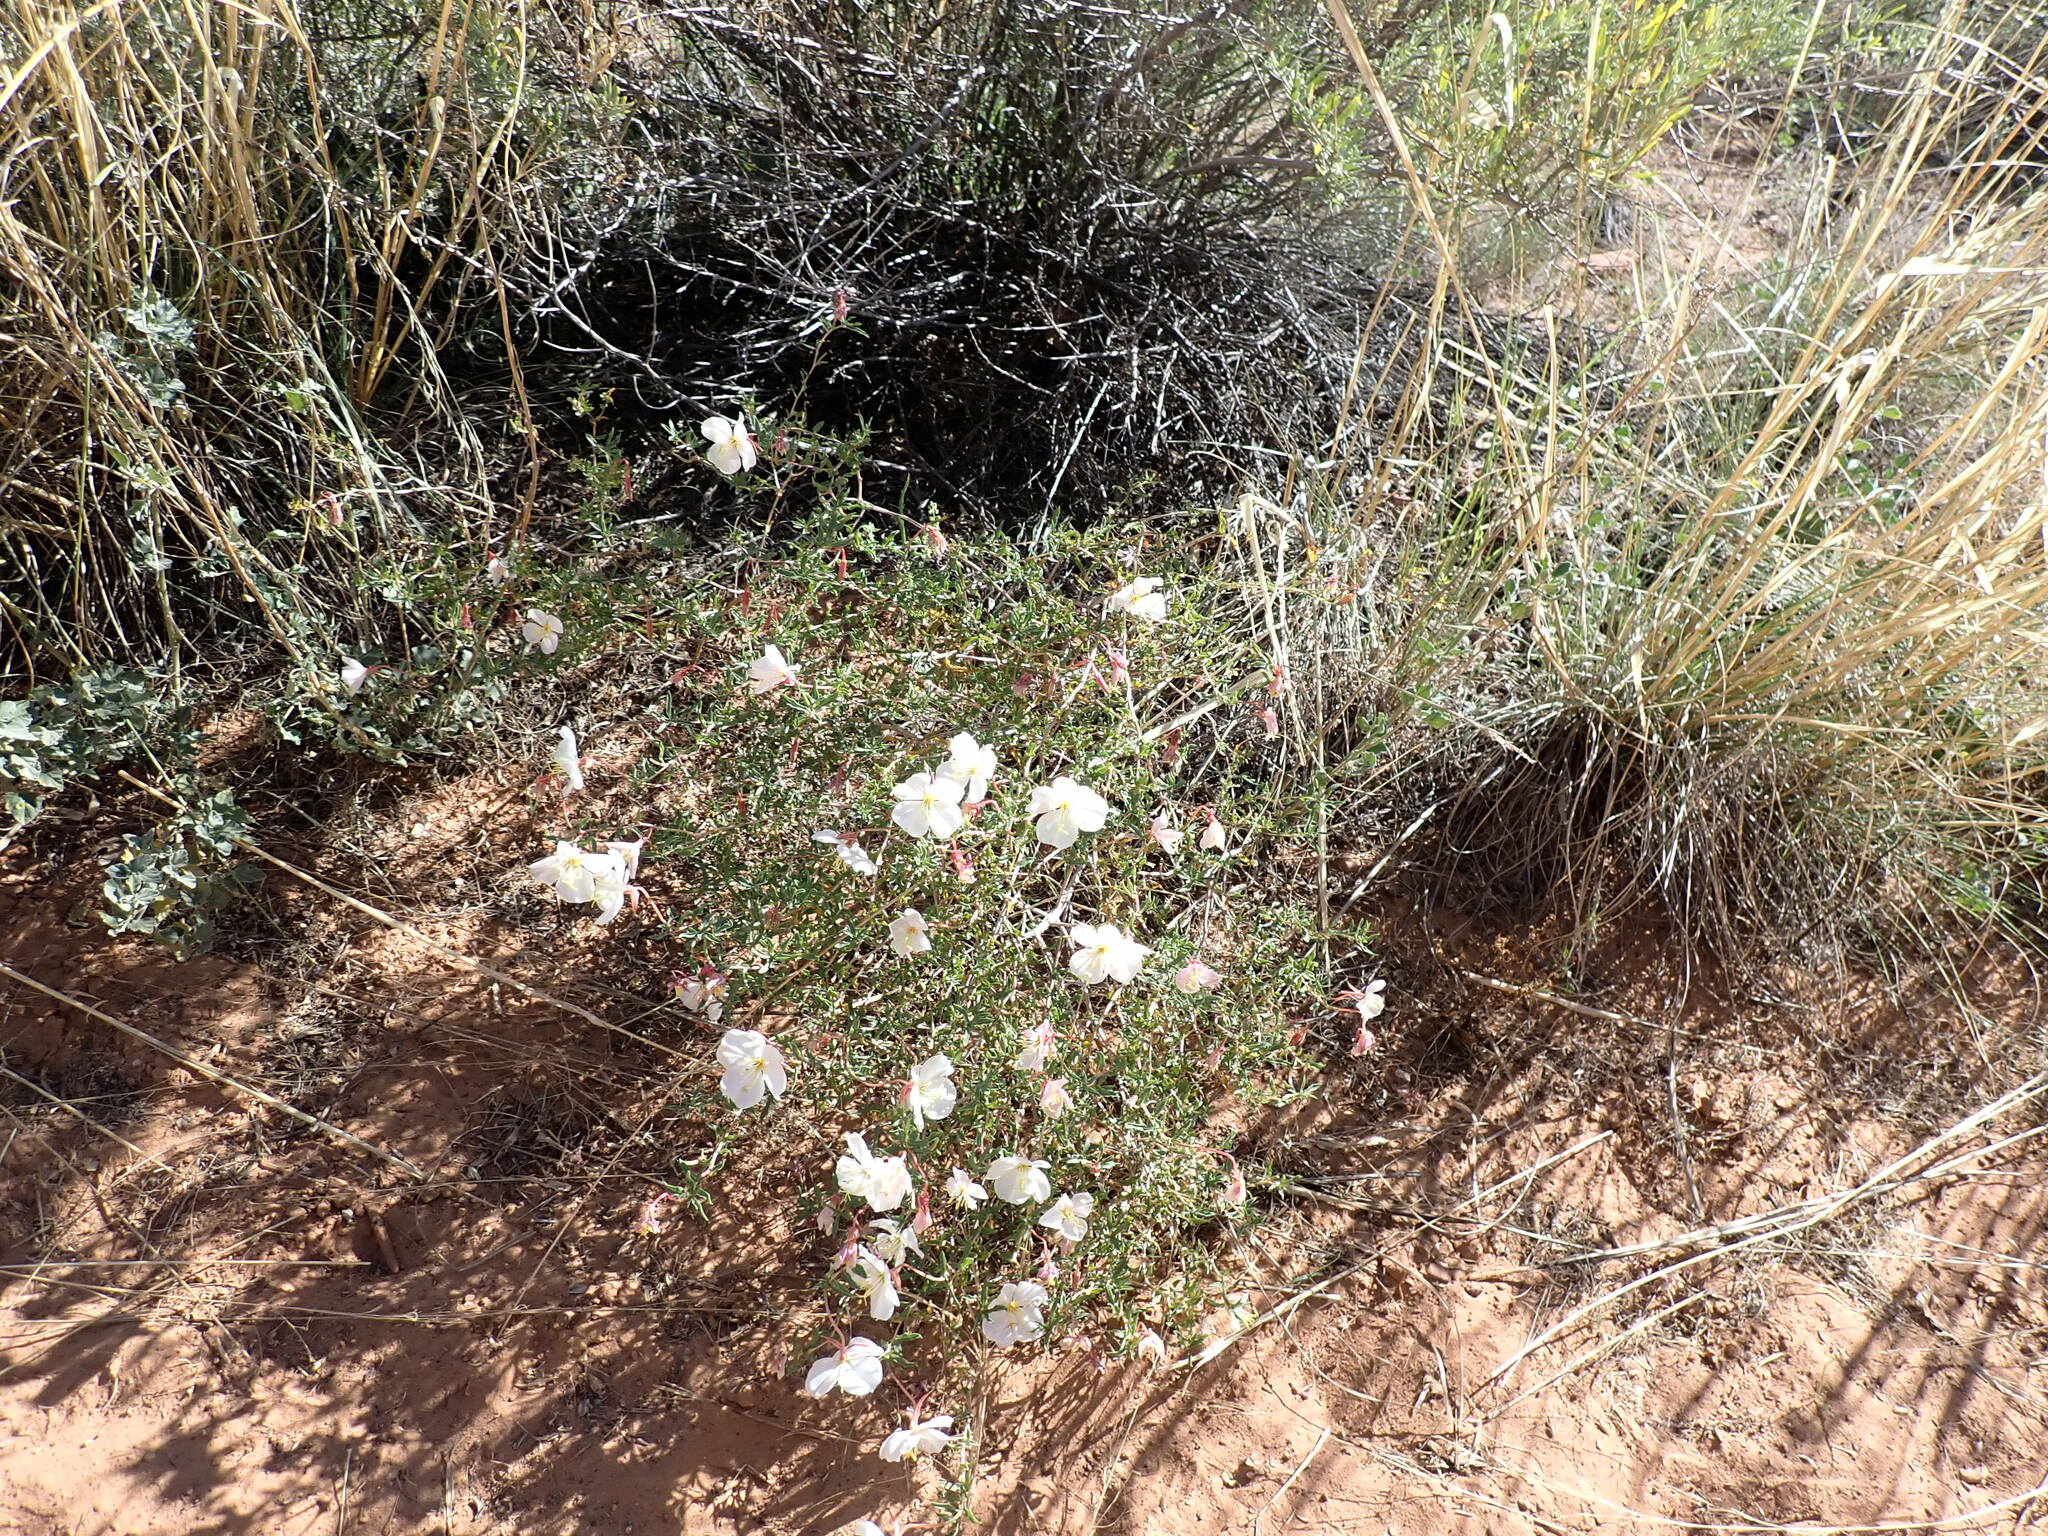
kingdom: Plantae
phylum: Tracheophyta
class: Magnoliopsida
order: Myrtales
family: Onagraceae
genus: Oenothera
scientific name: Oenothera pallida
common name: Pale evening-primrose
